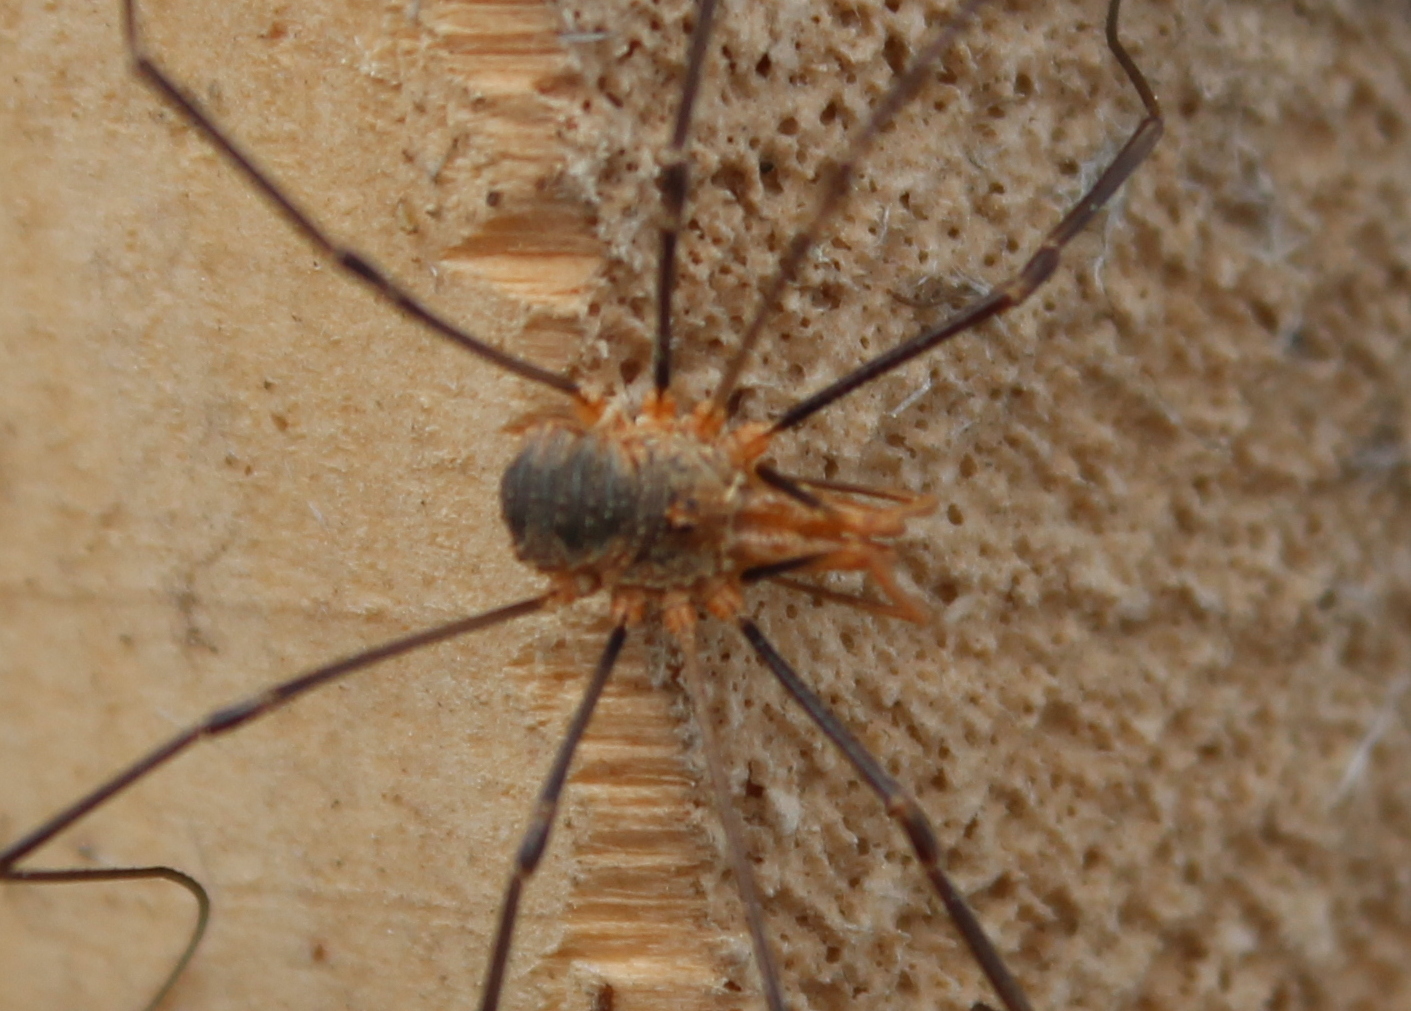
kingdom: Animalia
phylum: Arthropoda
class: Arachnida
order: Opiliones
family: Phalangiidae
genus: Phalangium
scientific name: Phalangium opilio
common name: Daddy longleg
